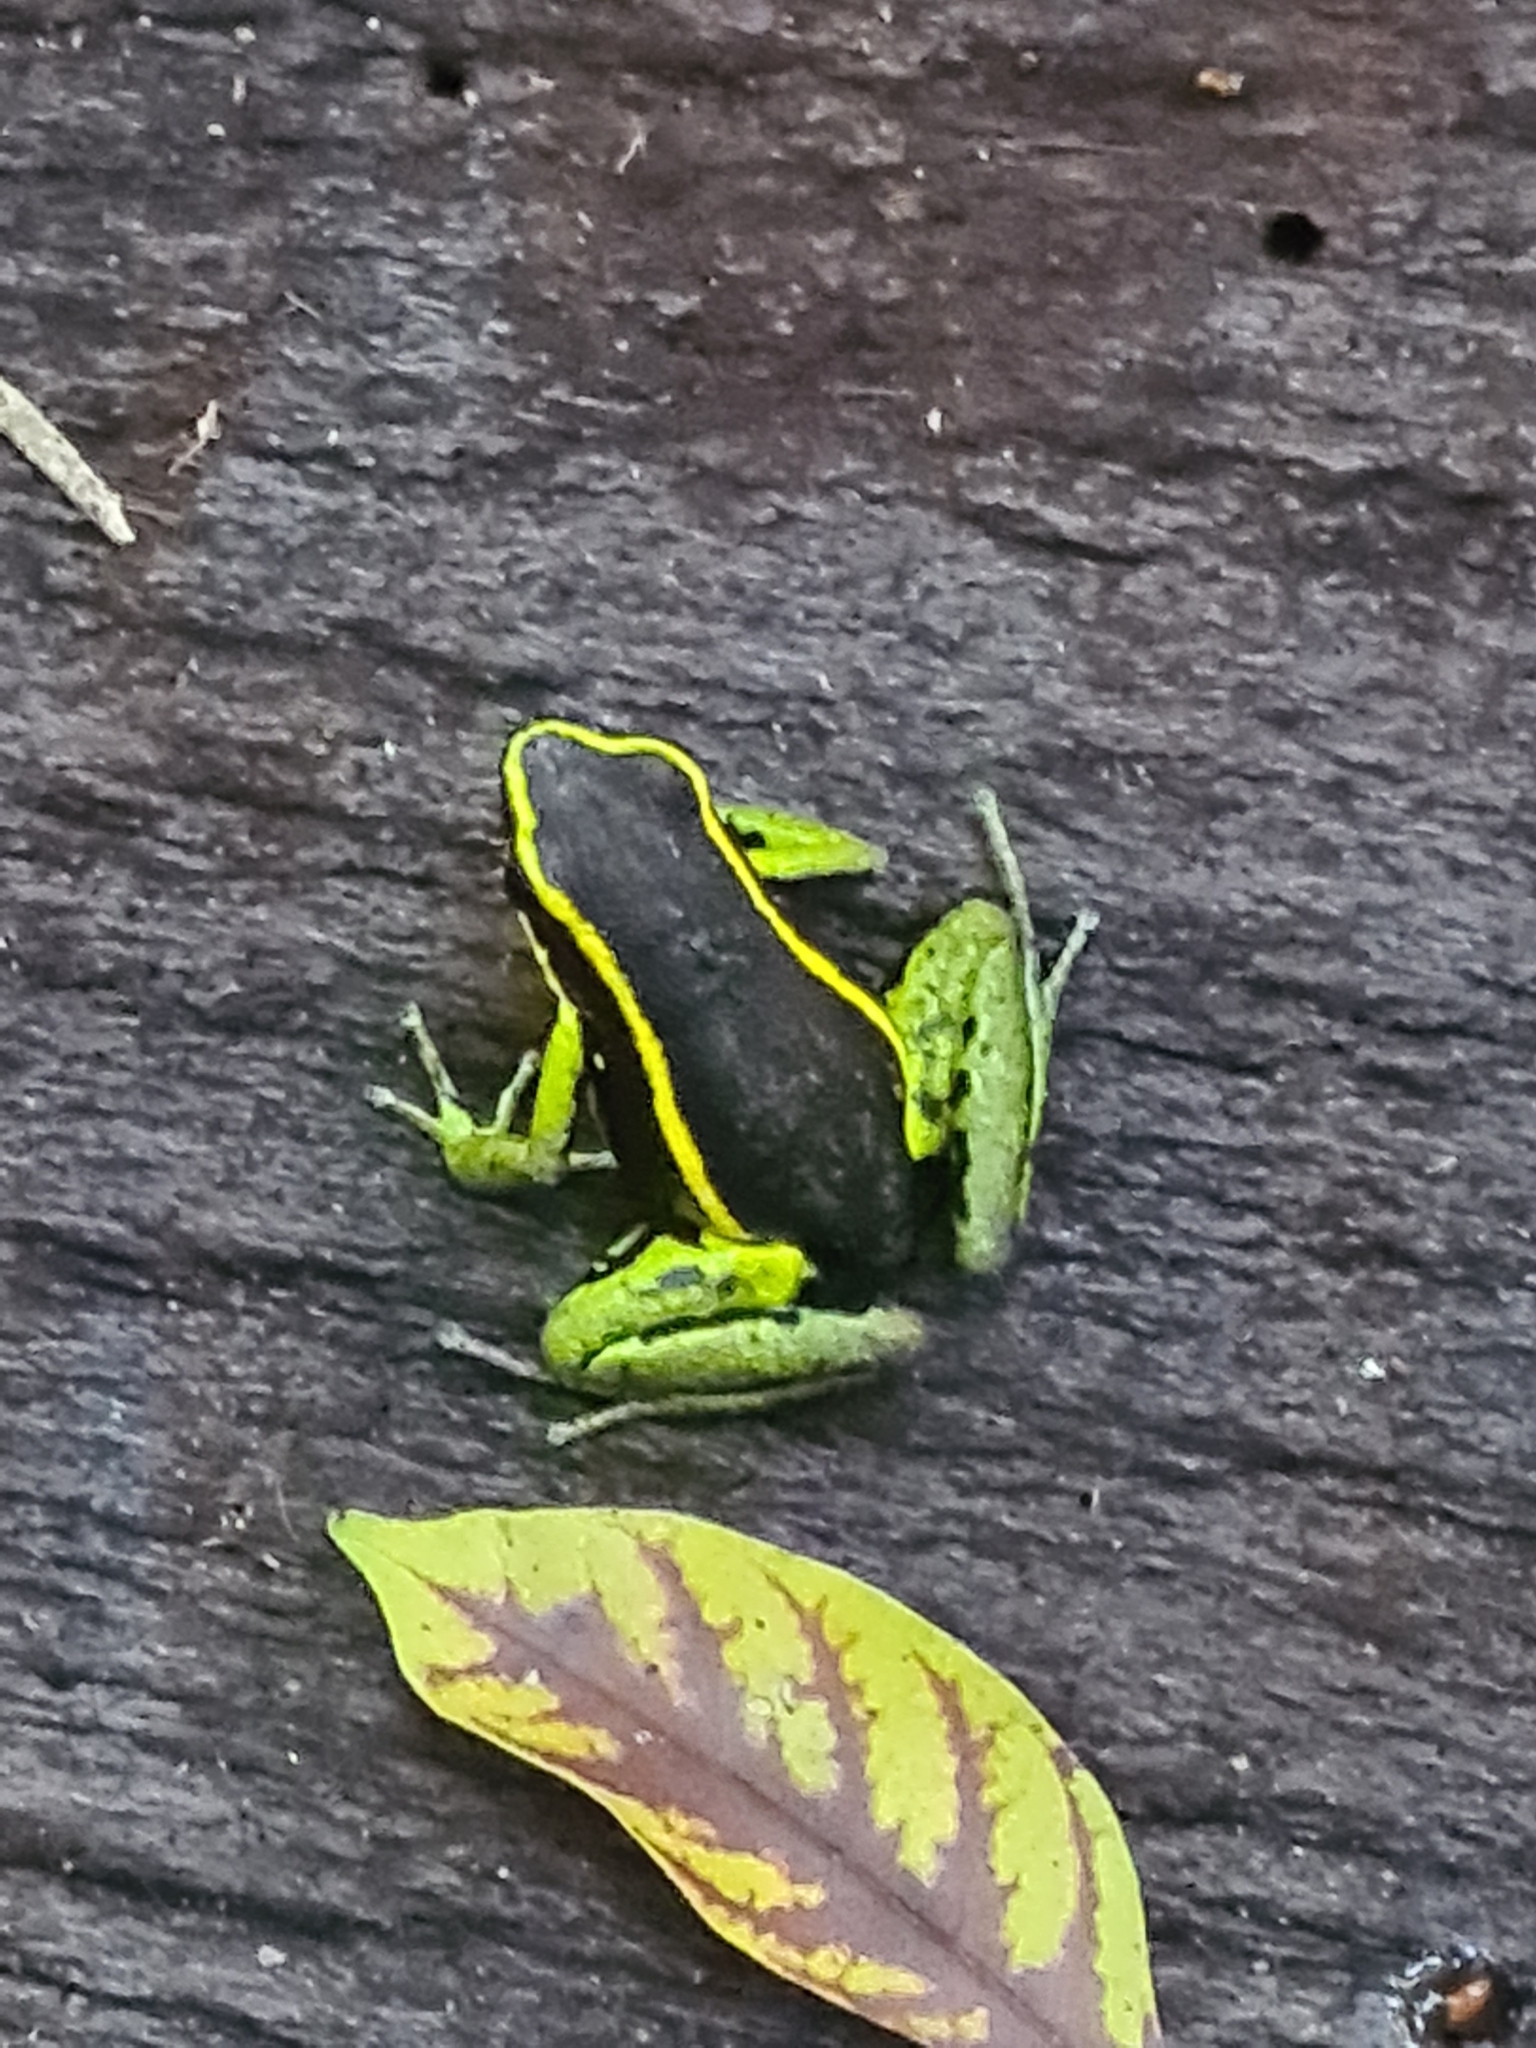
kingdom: Animalia
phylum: Chordata
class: Amphibia
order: Anura
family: Dendrobatidae
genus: Ameerega
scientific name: Ameerega trivittata
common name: Three-striped arrow-poison frog
